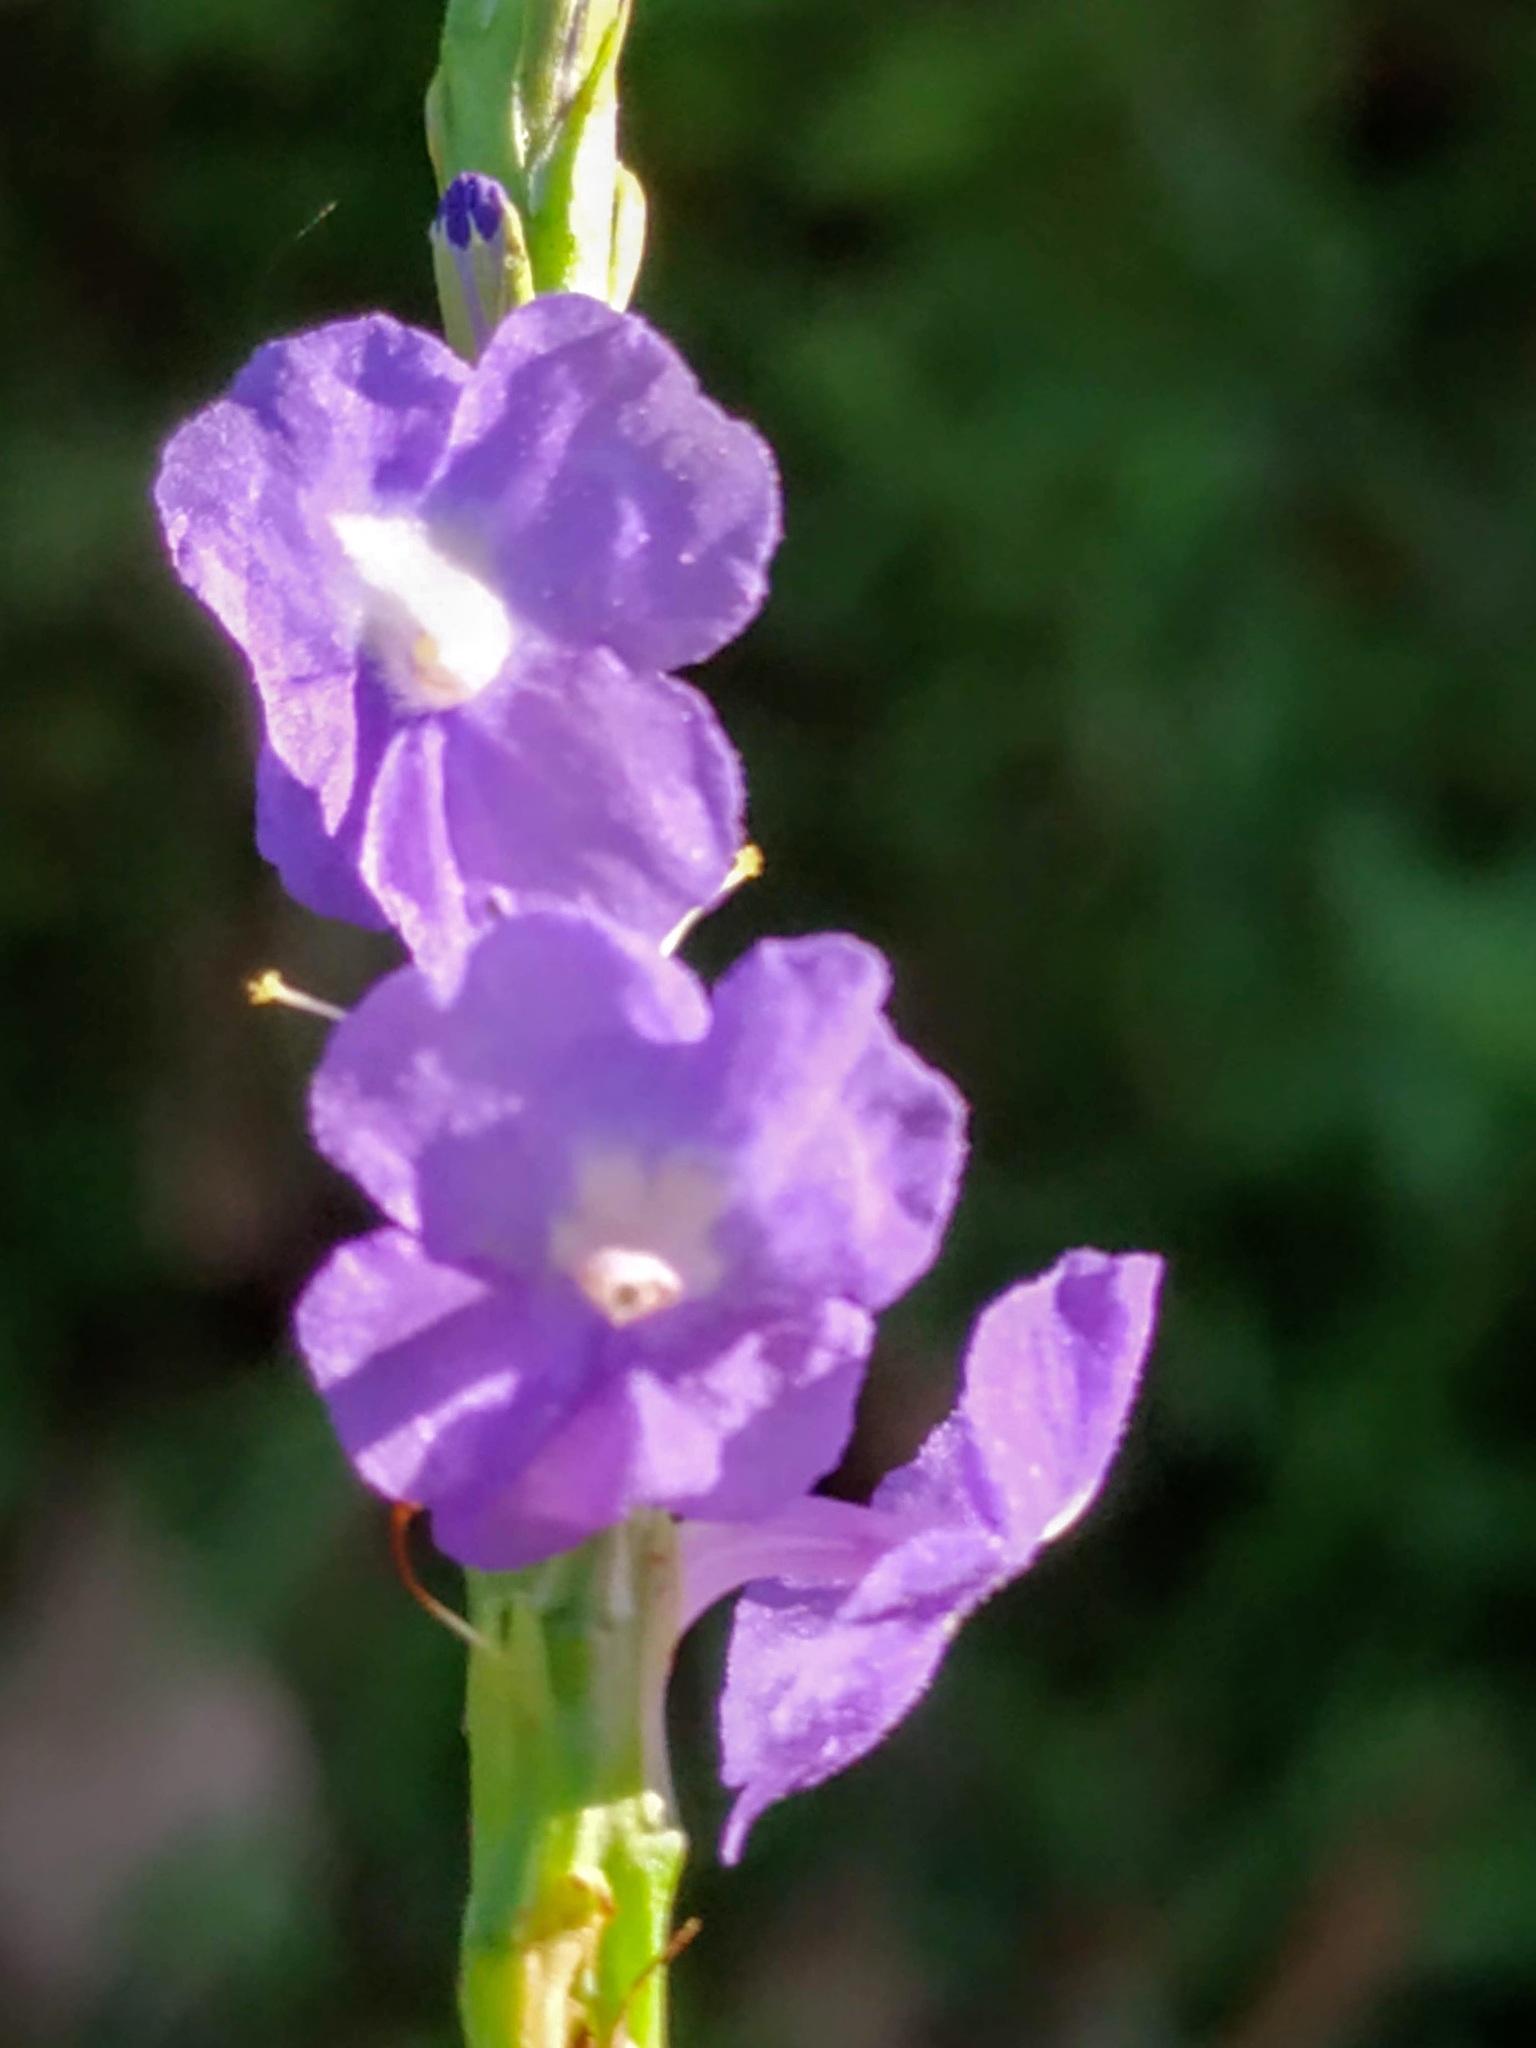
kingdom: Plantae
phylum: Tracheophyta
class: Magnoliopsida
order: Lamiales
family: Verbenaceae
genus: Stachytarpheta
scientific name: Stachytarpheta jamaicensis
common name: Light-blue snakeweed
